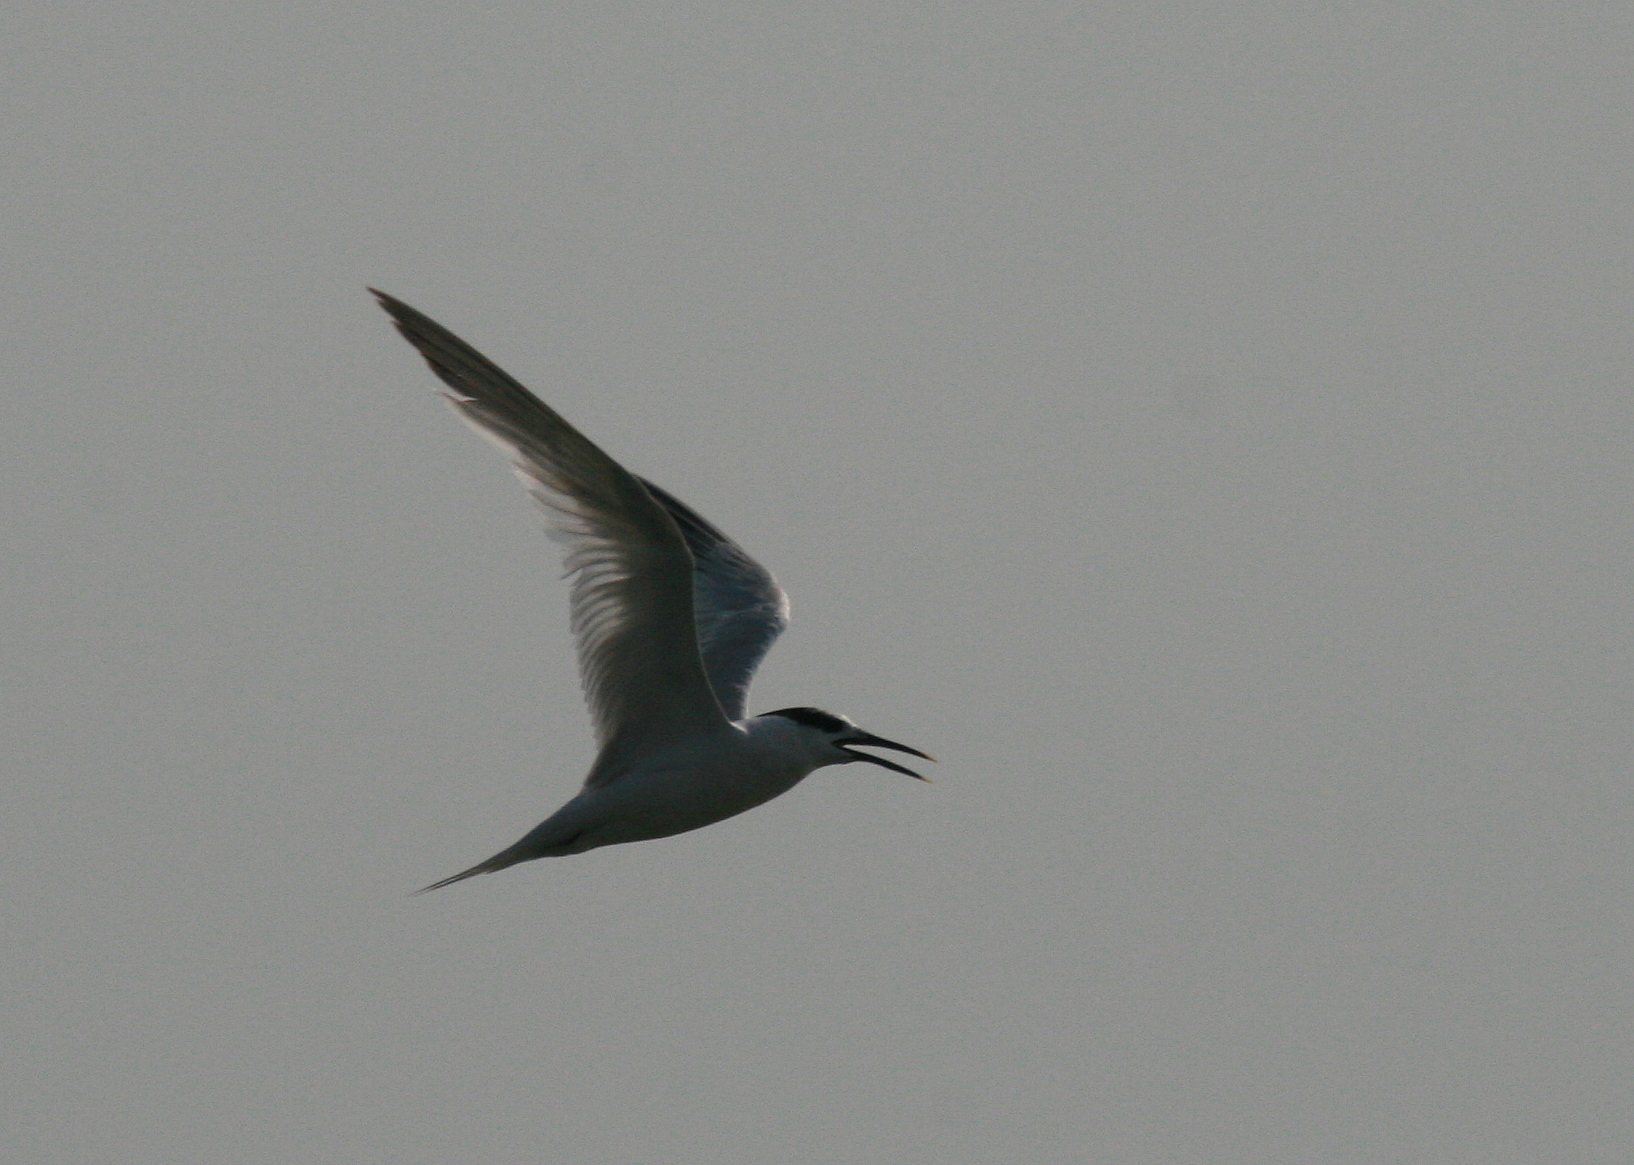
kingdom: Animalia
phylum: Chordata
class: Aves
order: Charadriiformes
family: Laridae
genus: Thalasseus
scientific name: Thalasseus sandvicensis
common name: Sandwich tern
